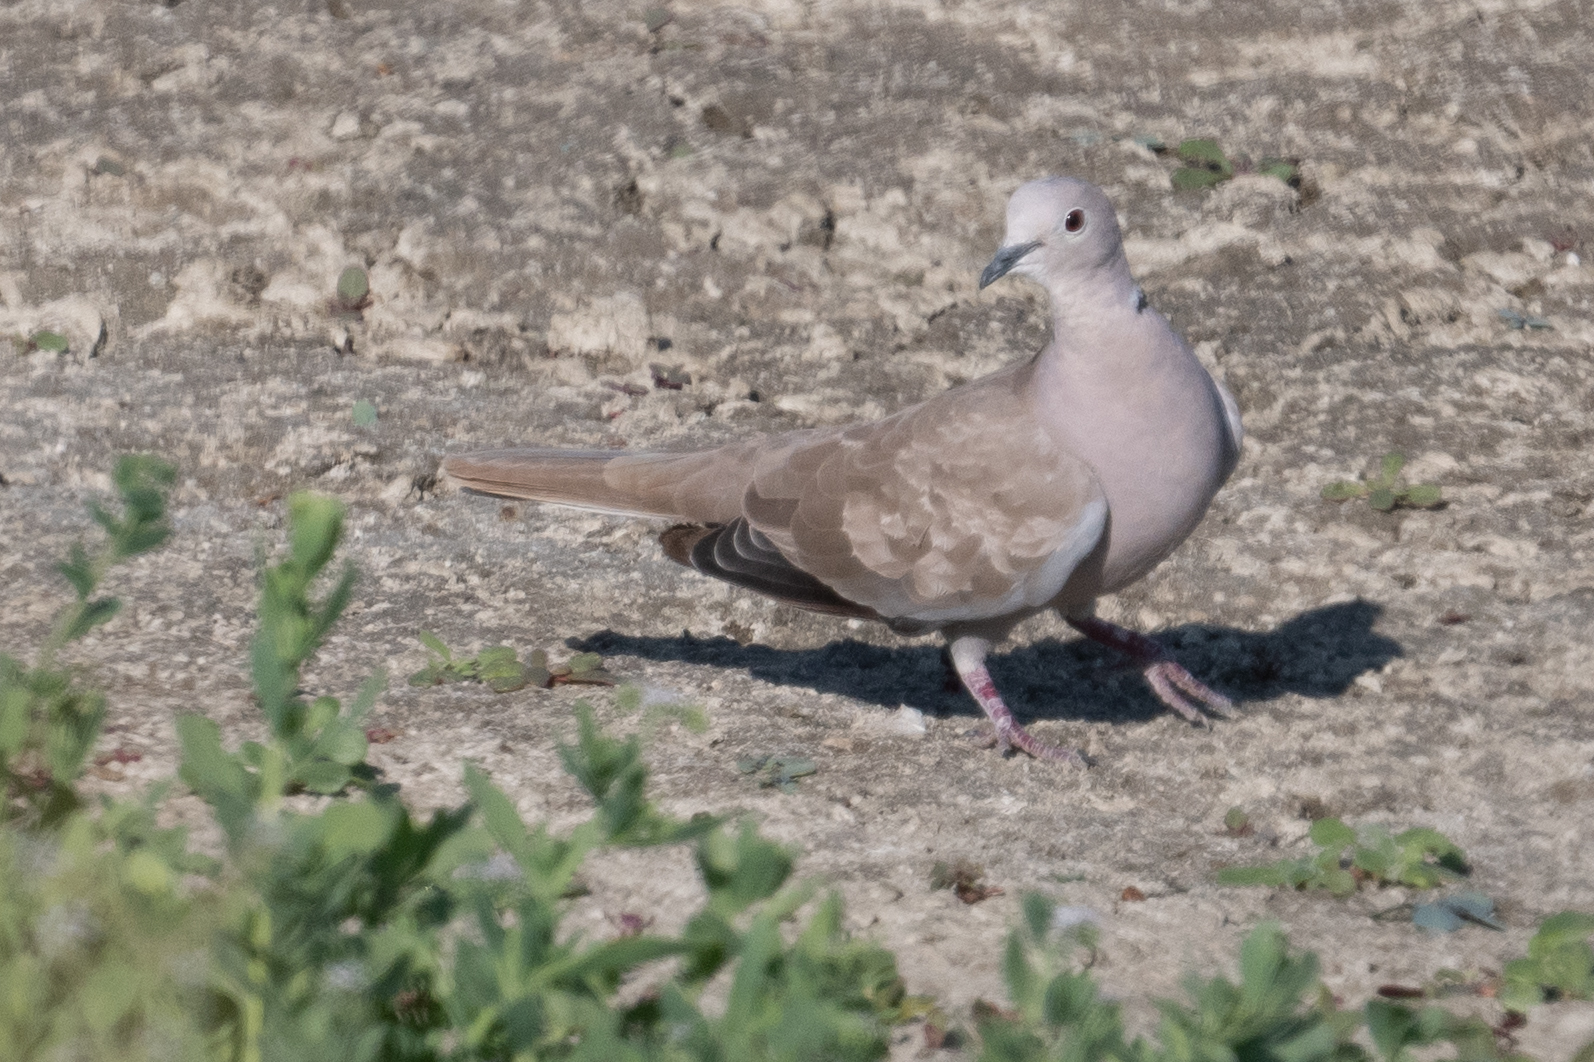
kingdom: Animalia
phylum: Chordata
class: Aves
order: Columbiformes
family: Columbidae
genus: Streptopelia
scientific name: Streptopelia decaocto
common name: Eurasian collared dove
